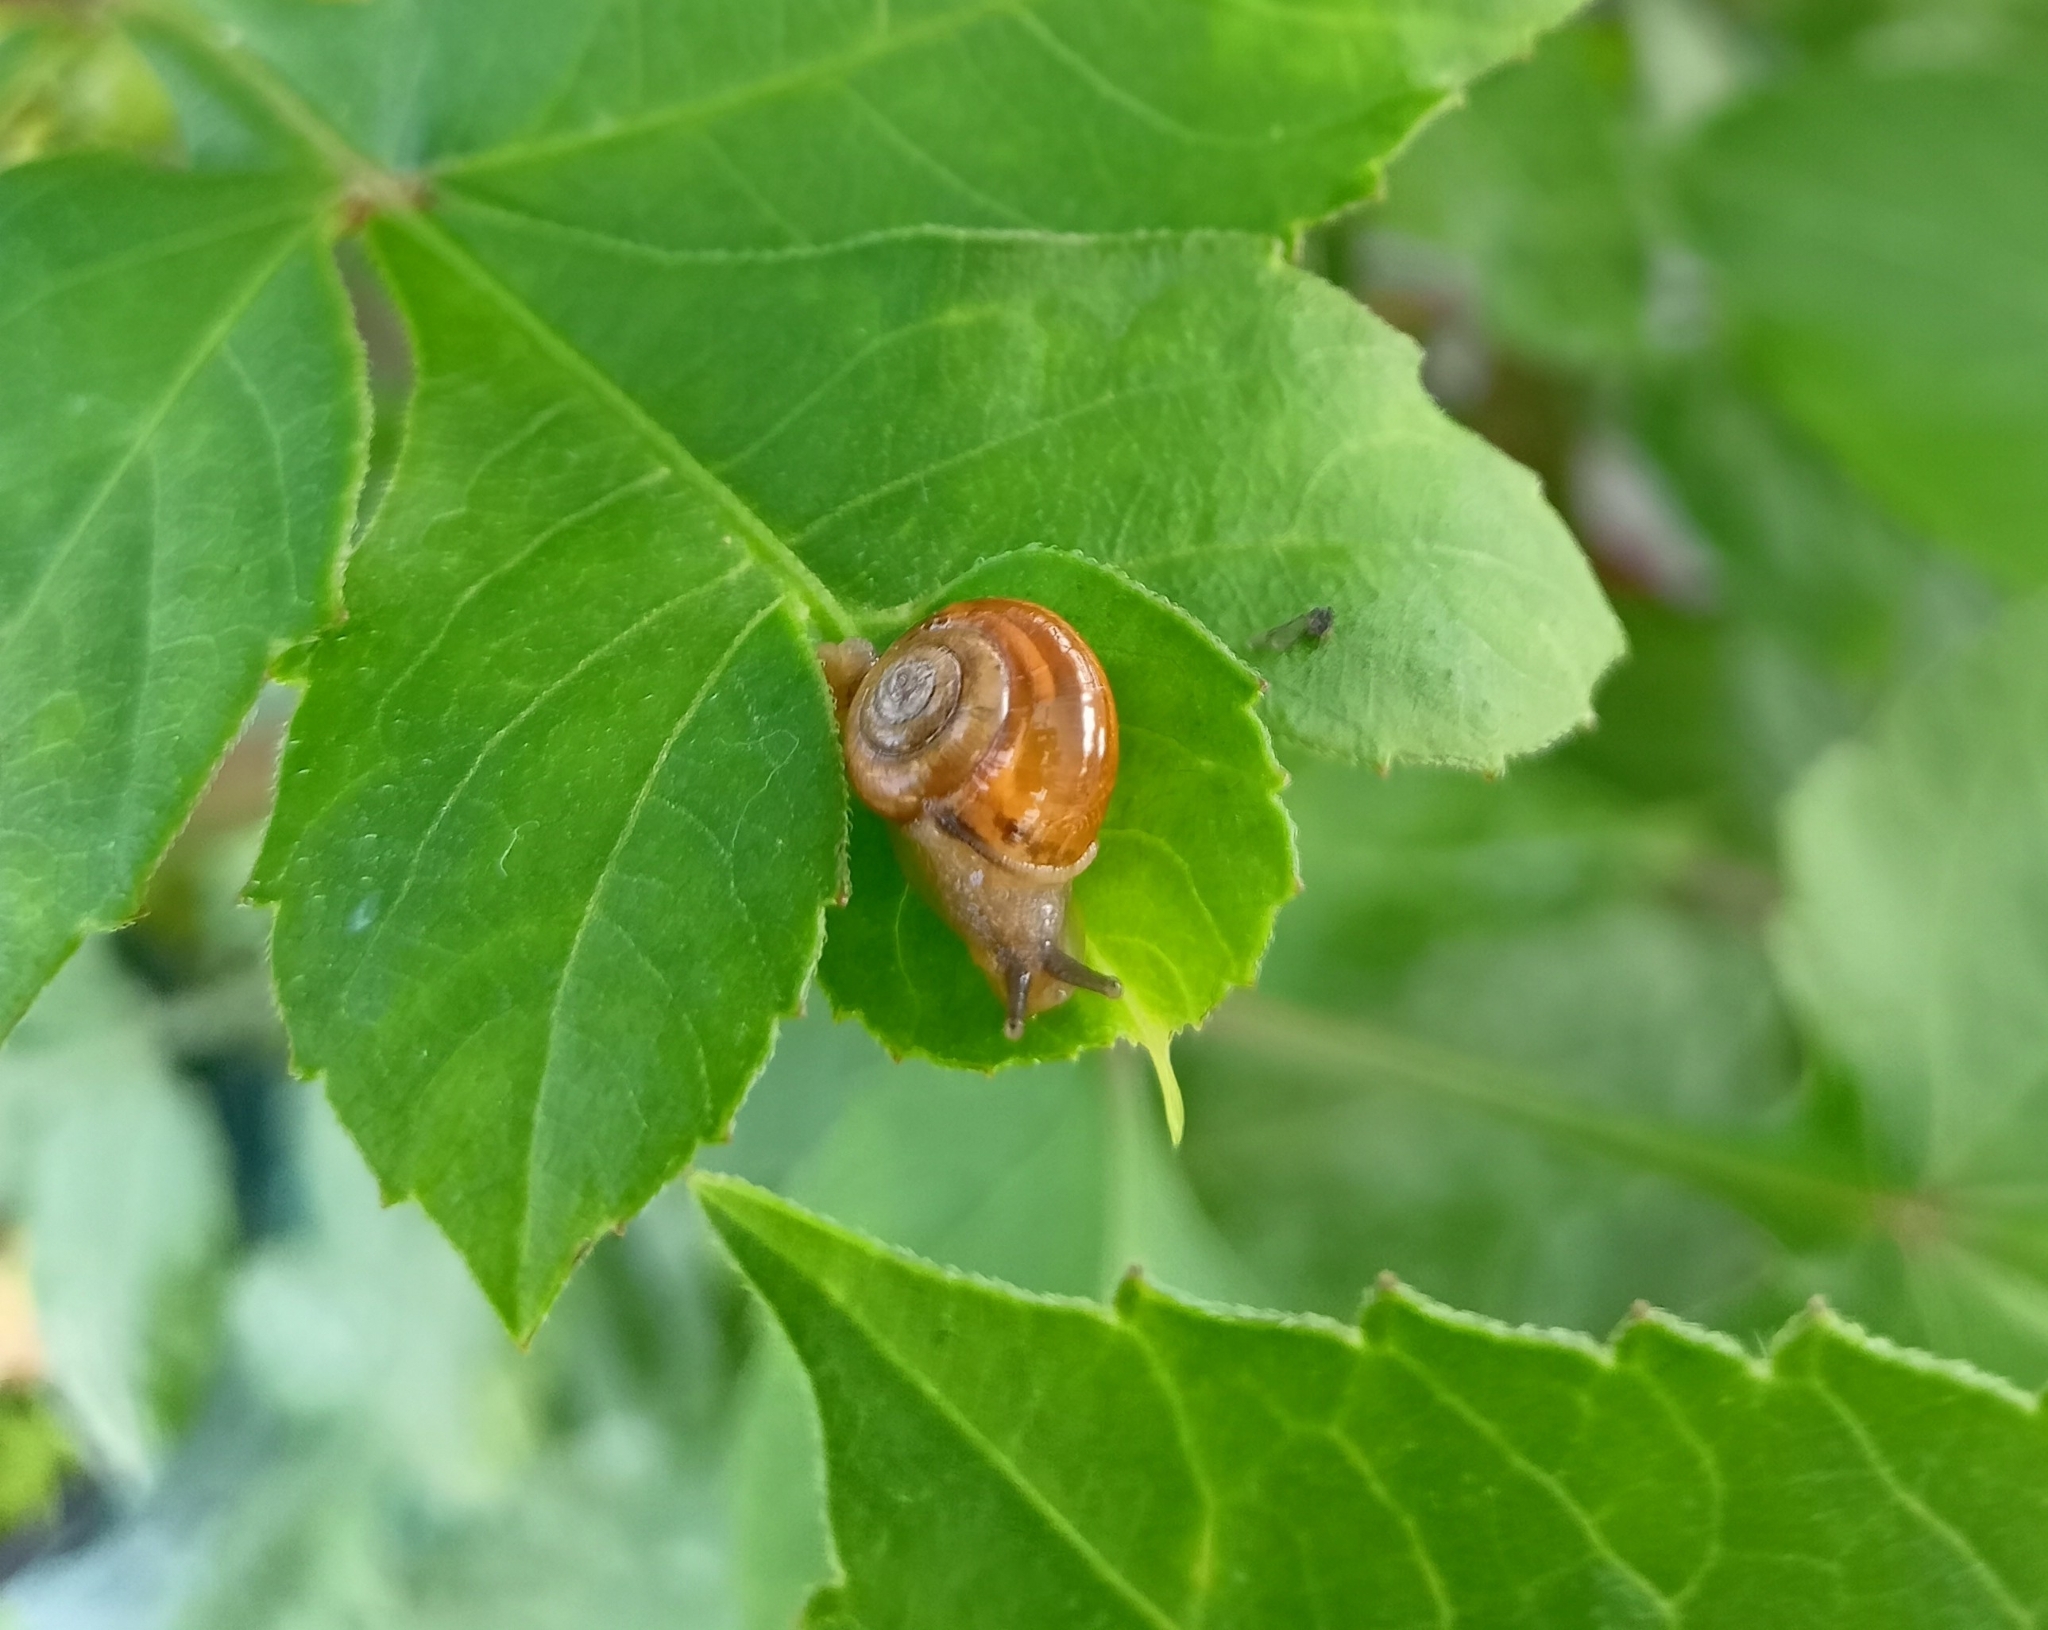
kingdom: Animalia
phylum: Mollusca
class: Gastropoda
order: Stylommatophora
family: Ariophantidae
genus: Macrochlamys
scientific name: Macrochlamys indica
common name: Horntail snail
